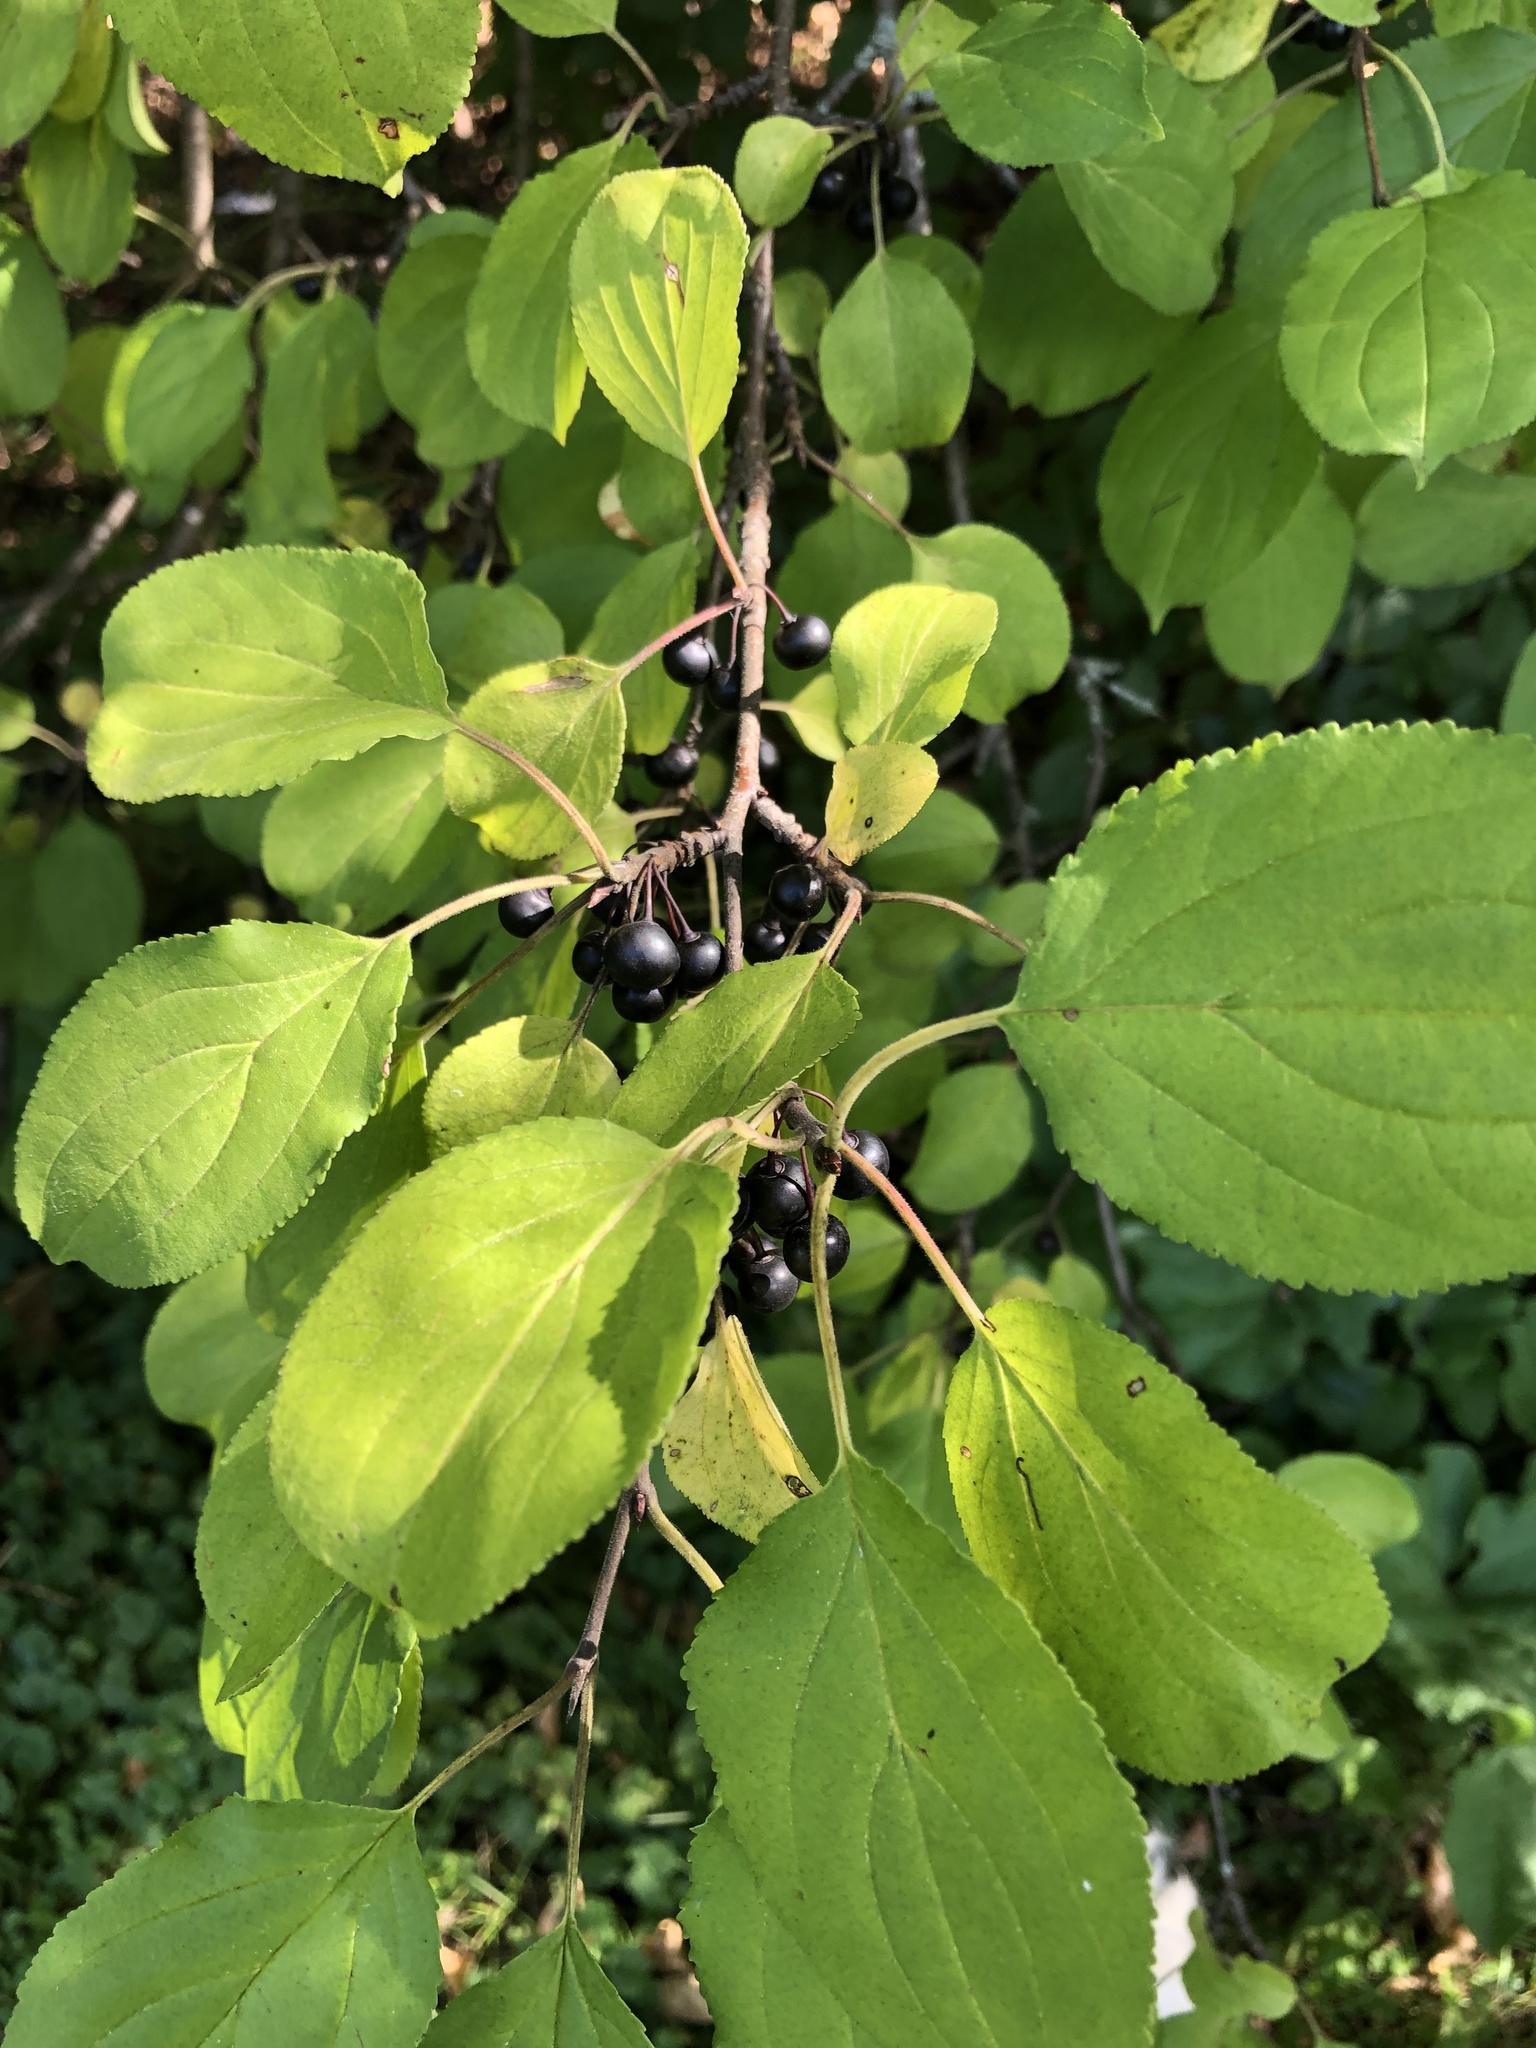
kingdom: Plantae
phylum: Tracheophyta
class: Magnoliopsida
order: Rosales
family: Rhamnaceae
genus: Rhamnus
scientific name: Rhamnus cathartica
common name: Common buckthorn
